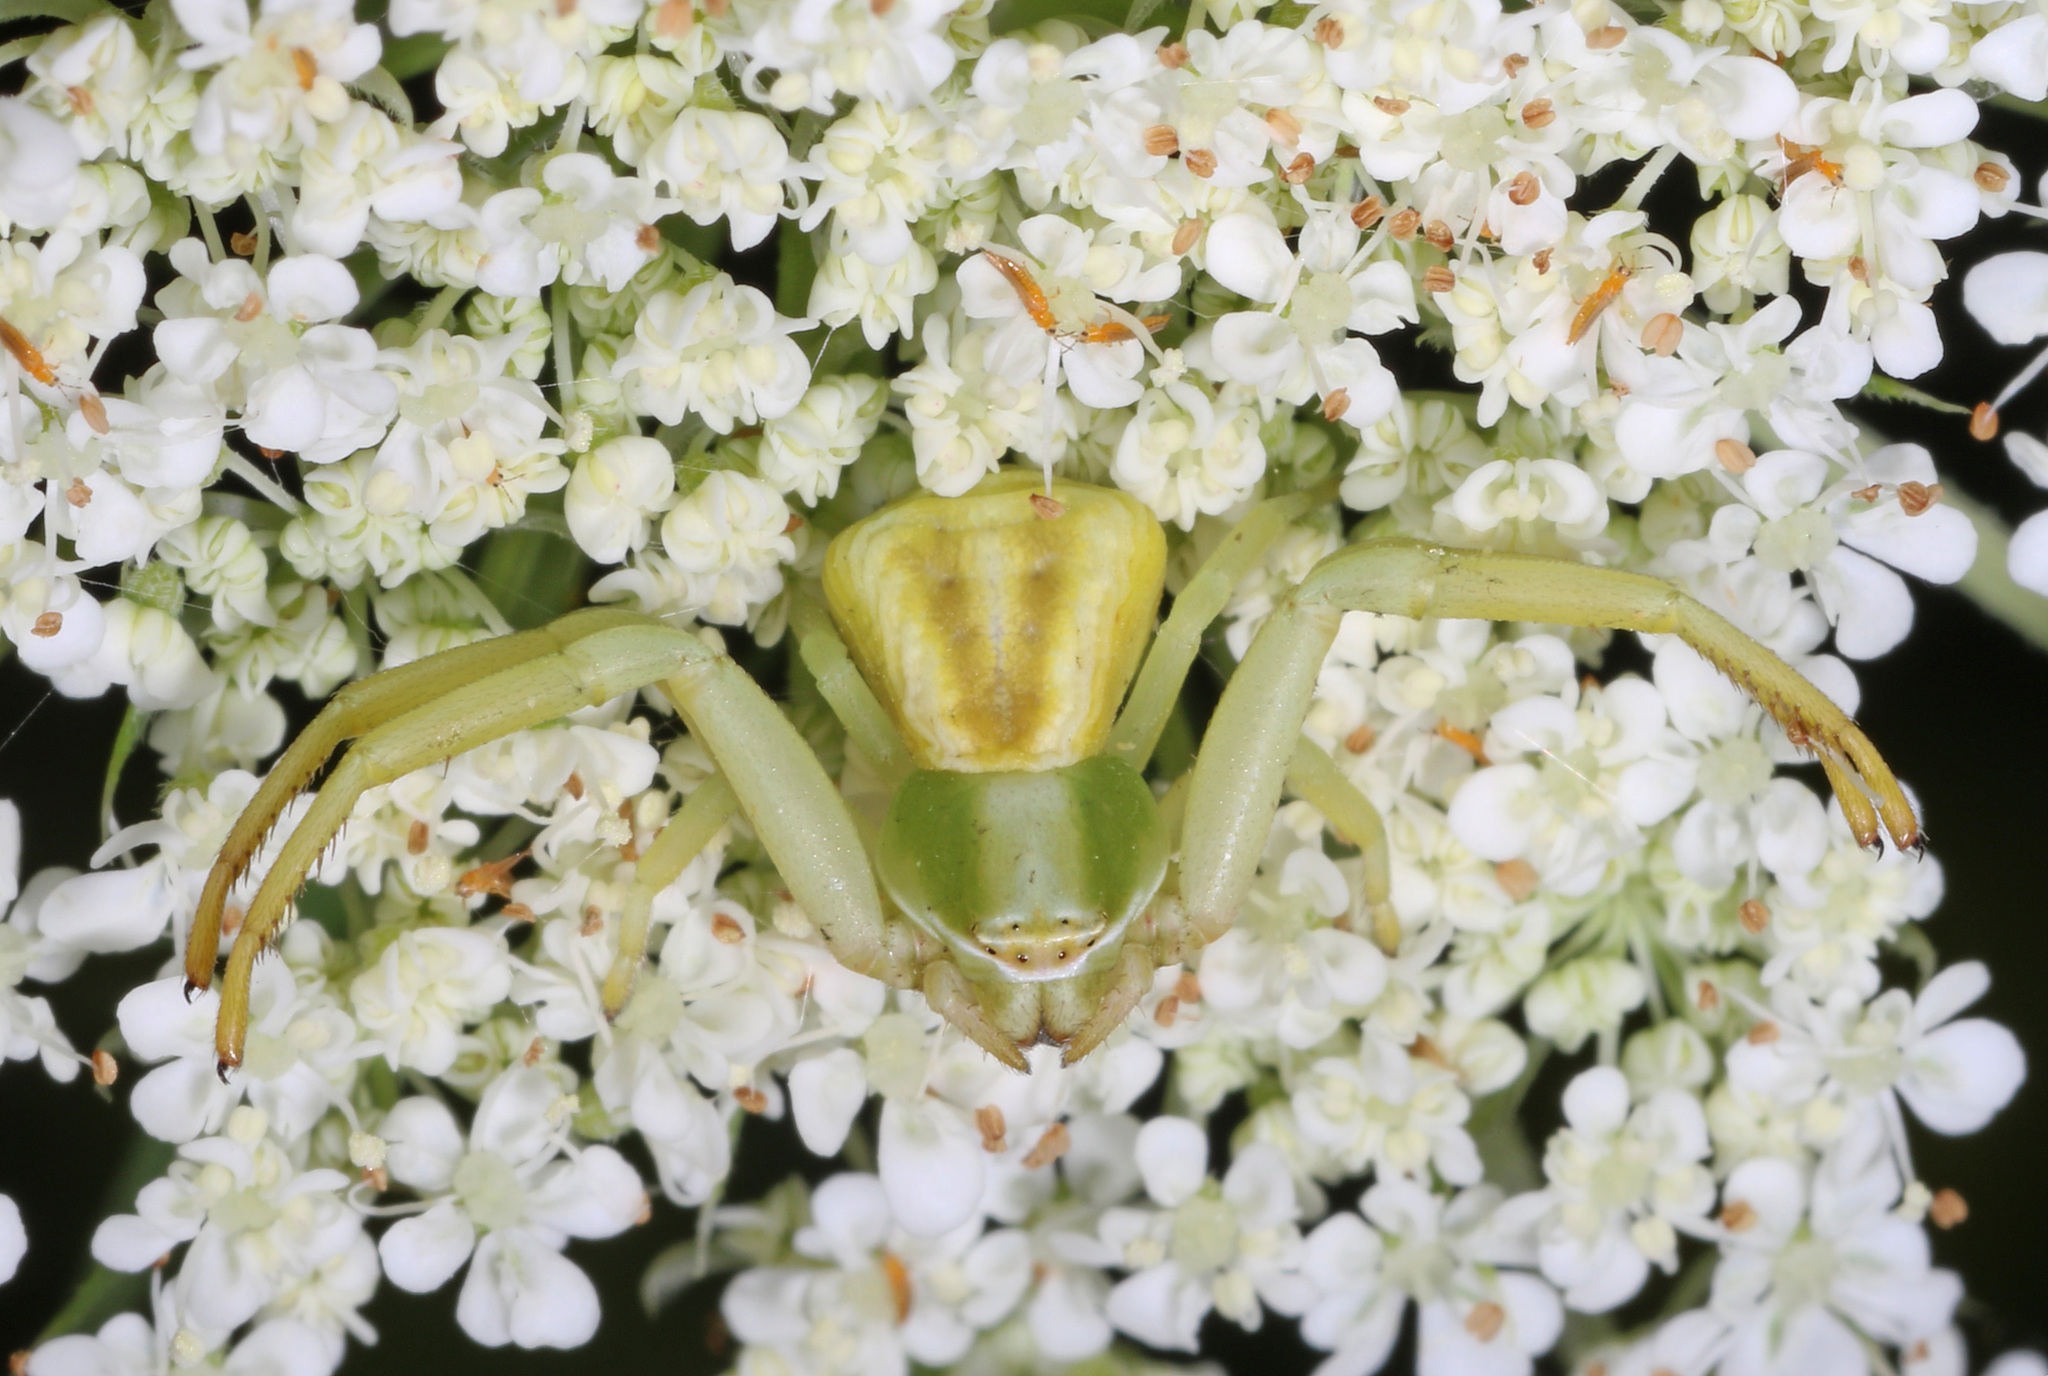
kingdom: Animalia
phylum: Arthropoda
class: Arachnida
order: Araneae
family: Thomisidae
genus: Misumenoides
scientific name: Misumenoides formosipes
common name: White-banded crab spider
